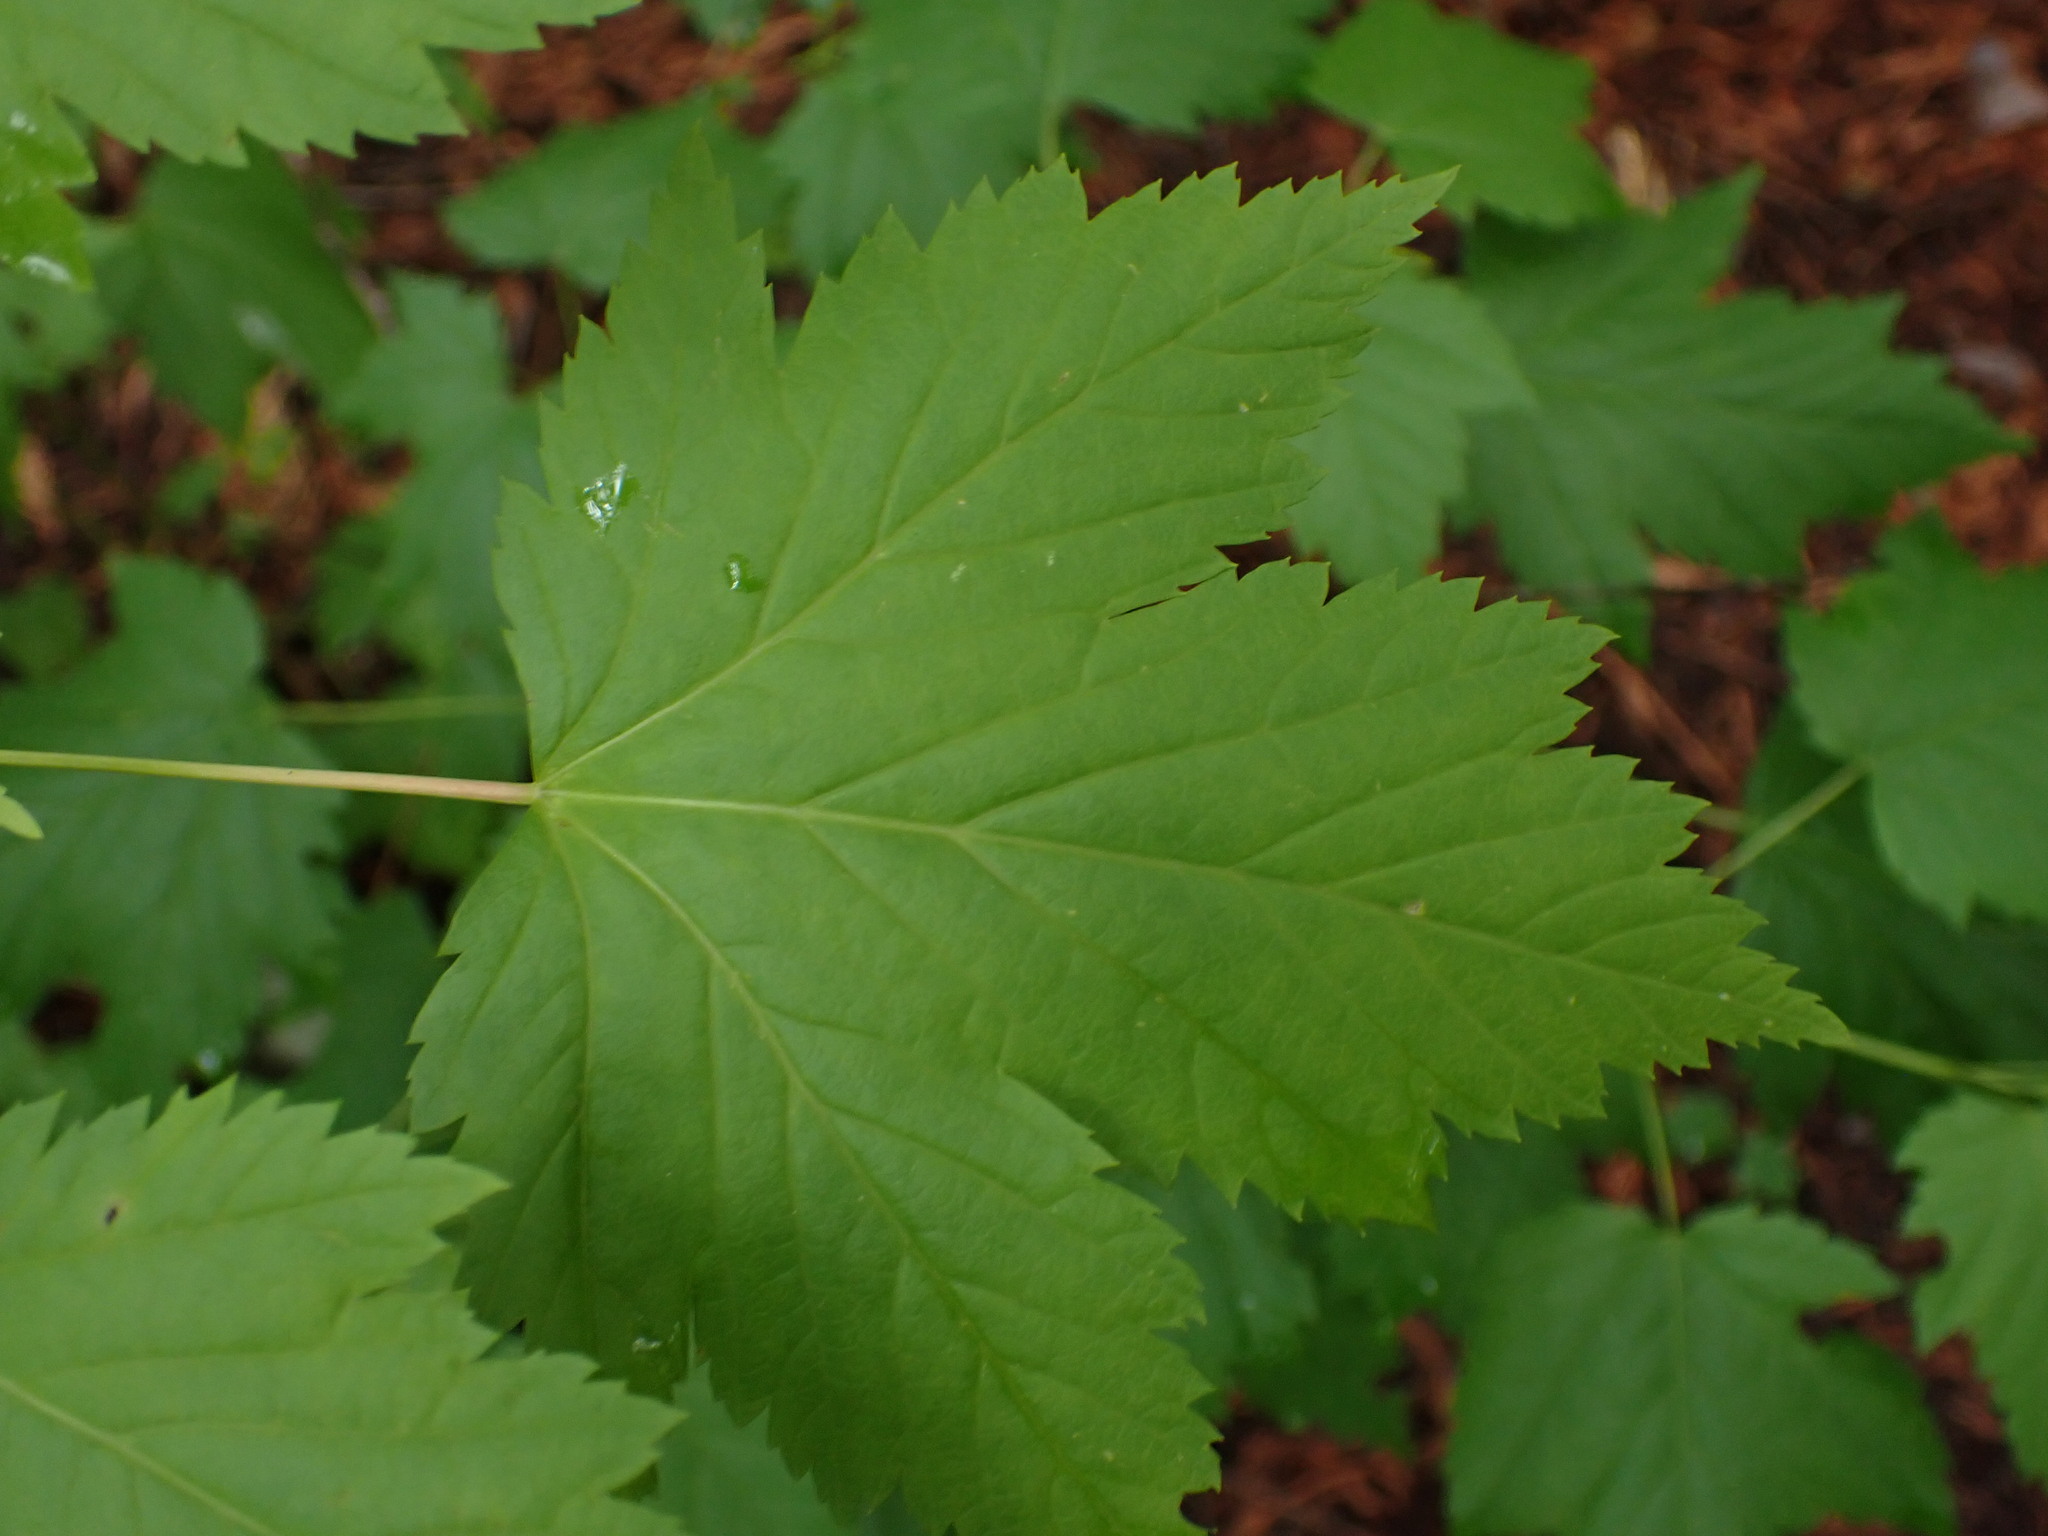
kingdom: Plantae
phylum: Tracheophyta
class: Magnoliopsida
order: Sapindales
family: Sapindaceae
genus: Acer
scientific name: Acer glabrum
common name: Rocky mountain maple
